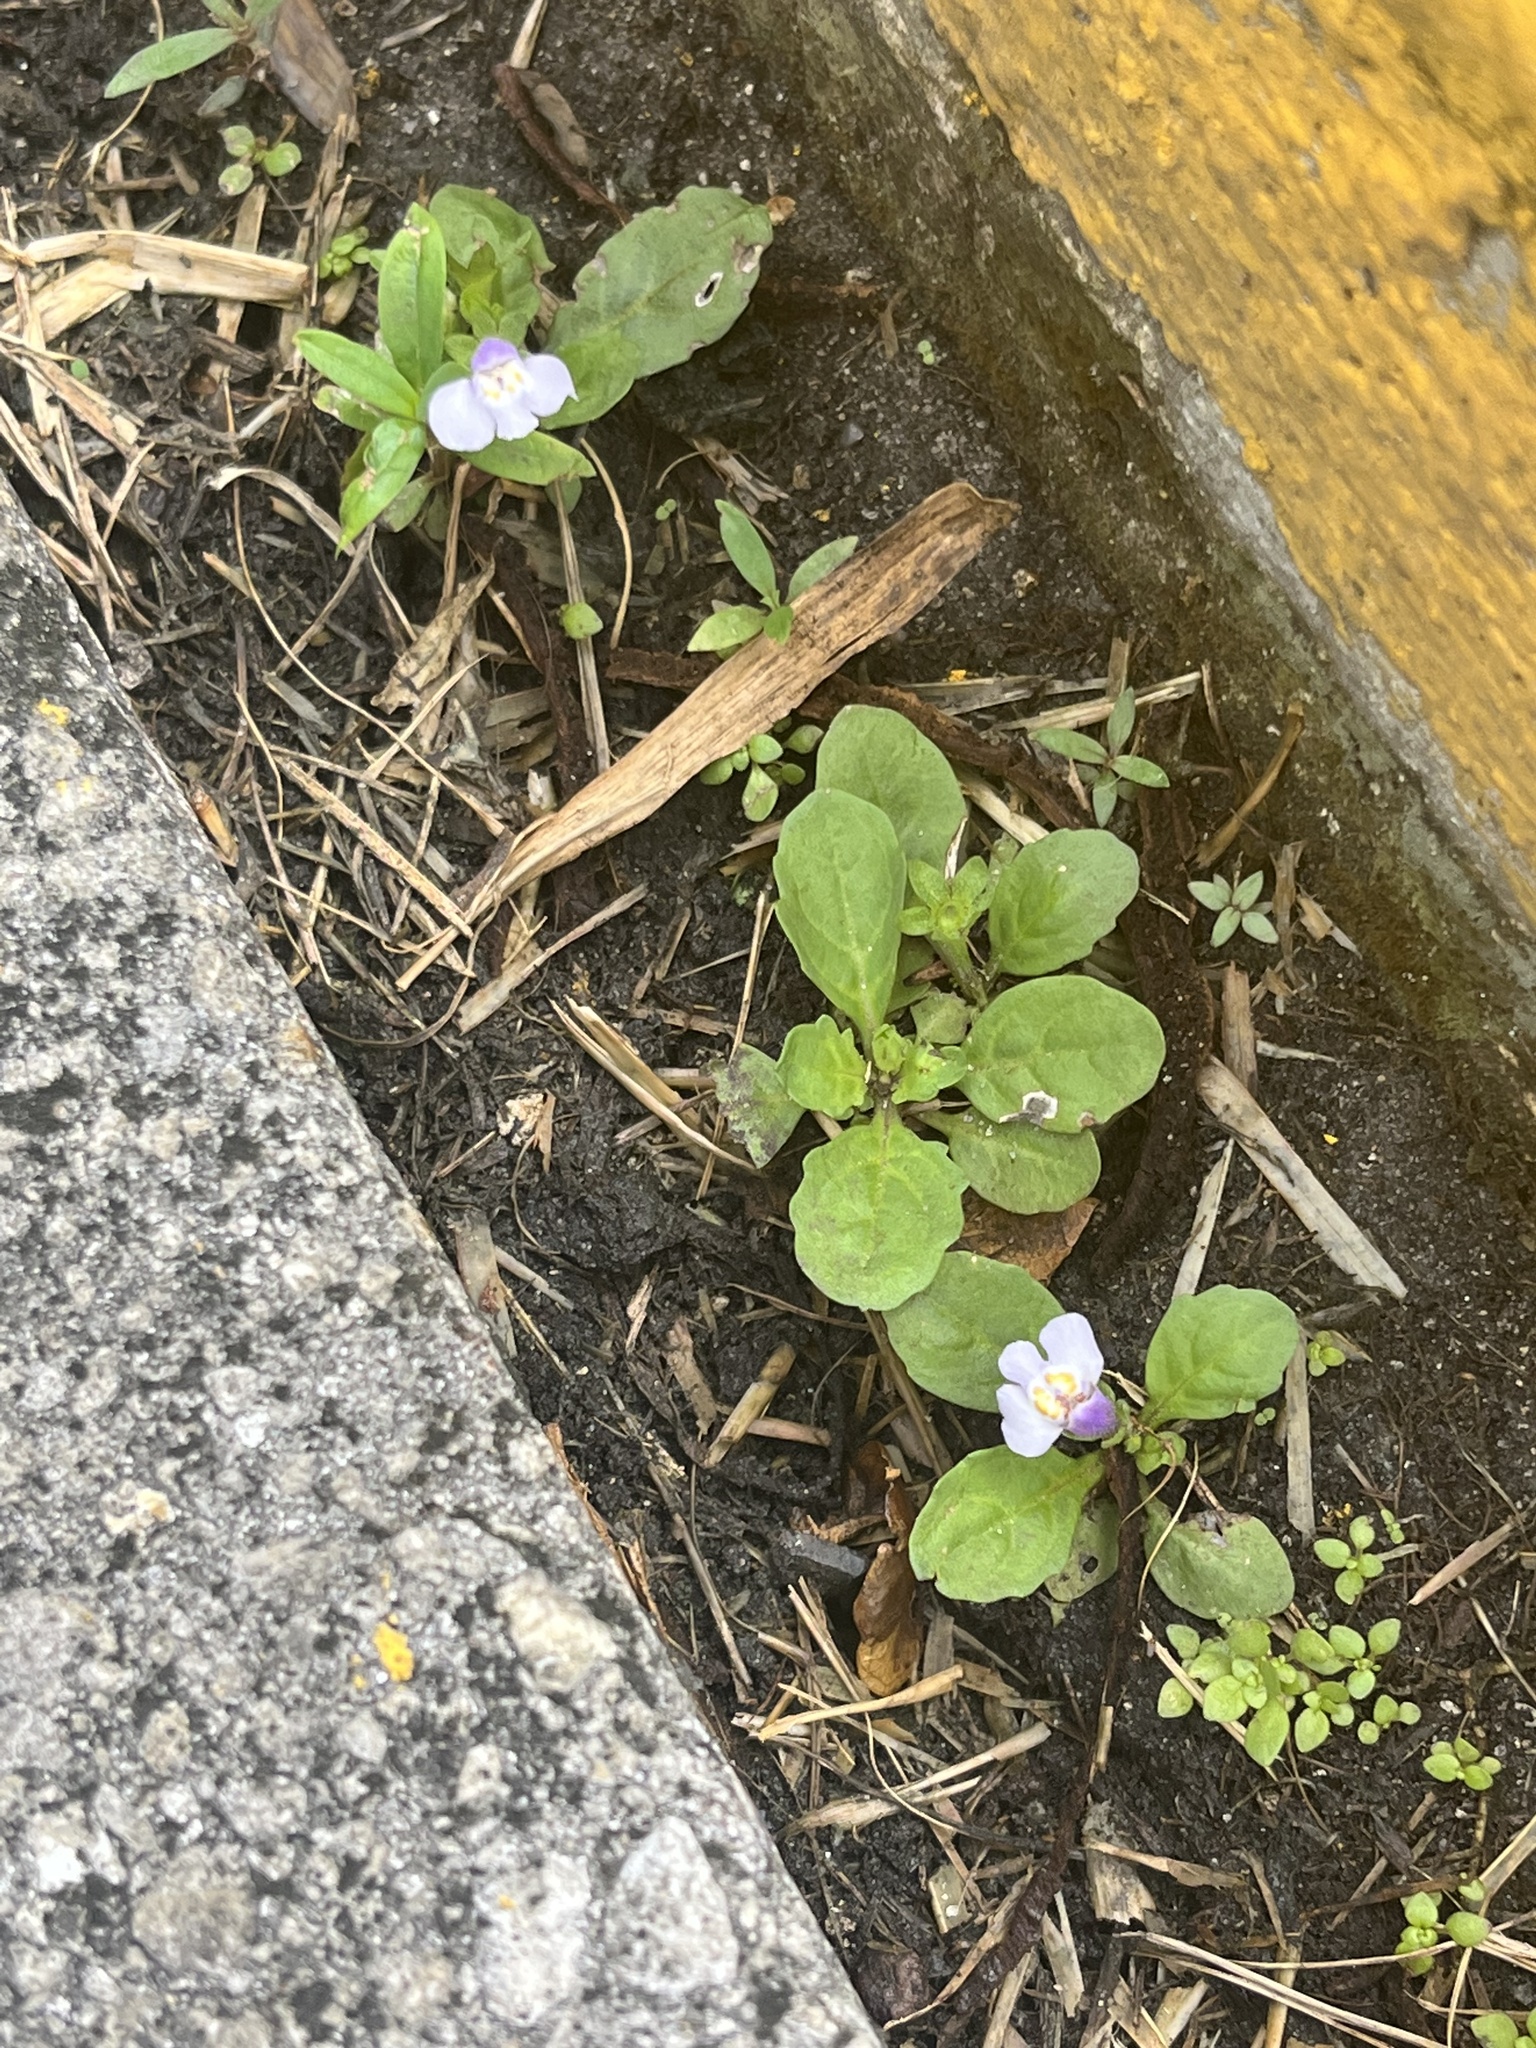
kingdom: Plantae
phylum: Tracheophyta
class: Magnoliopsida
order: Lamiales
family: Mazaceae
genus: Mazus
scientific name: Mazus pumilus
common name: Japanese mazus
